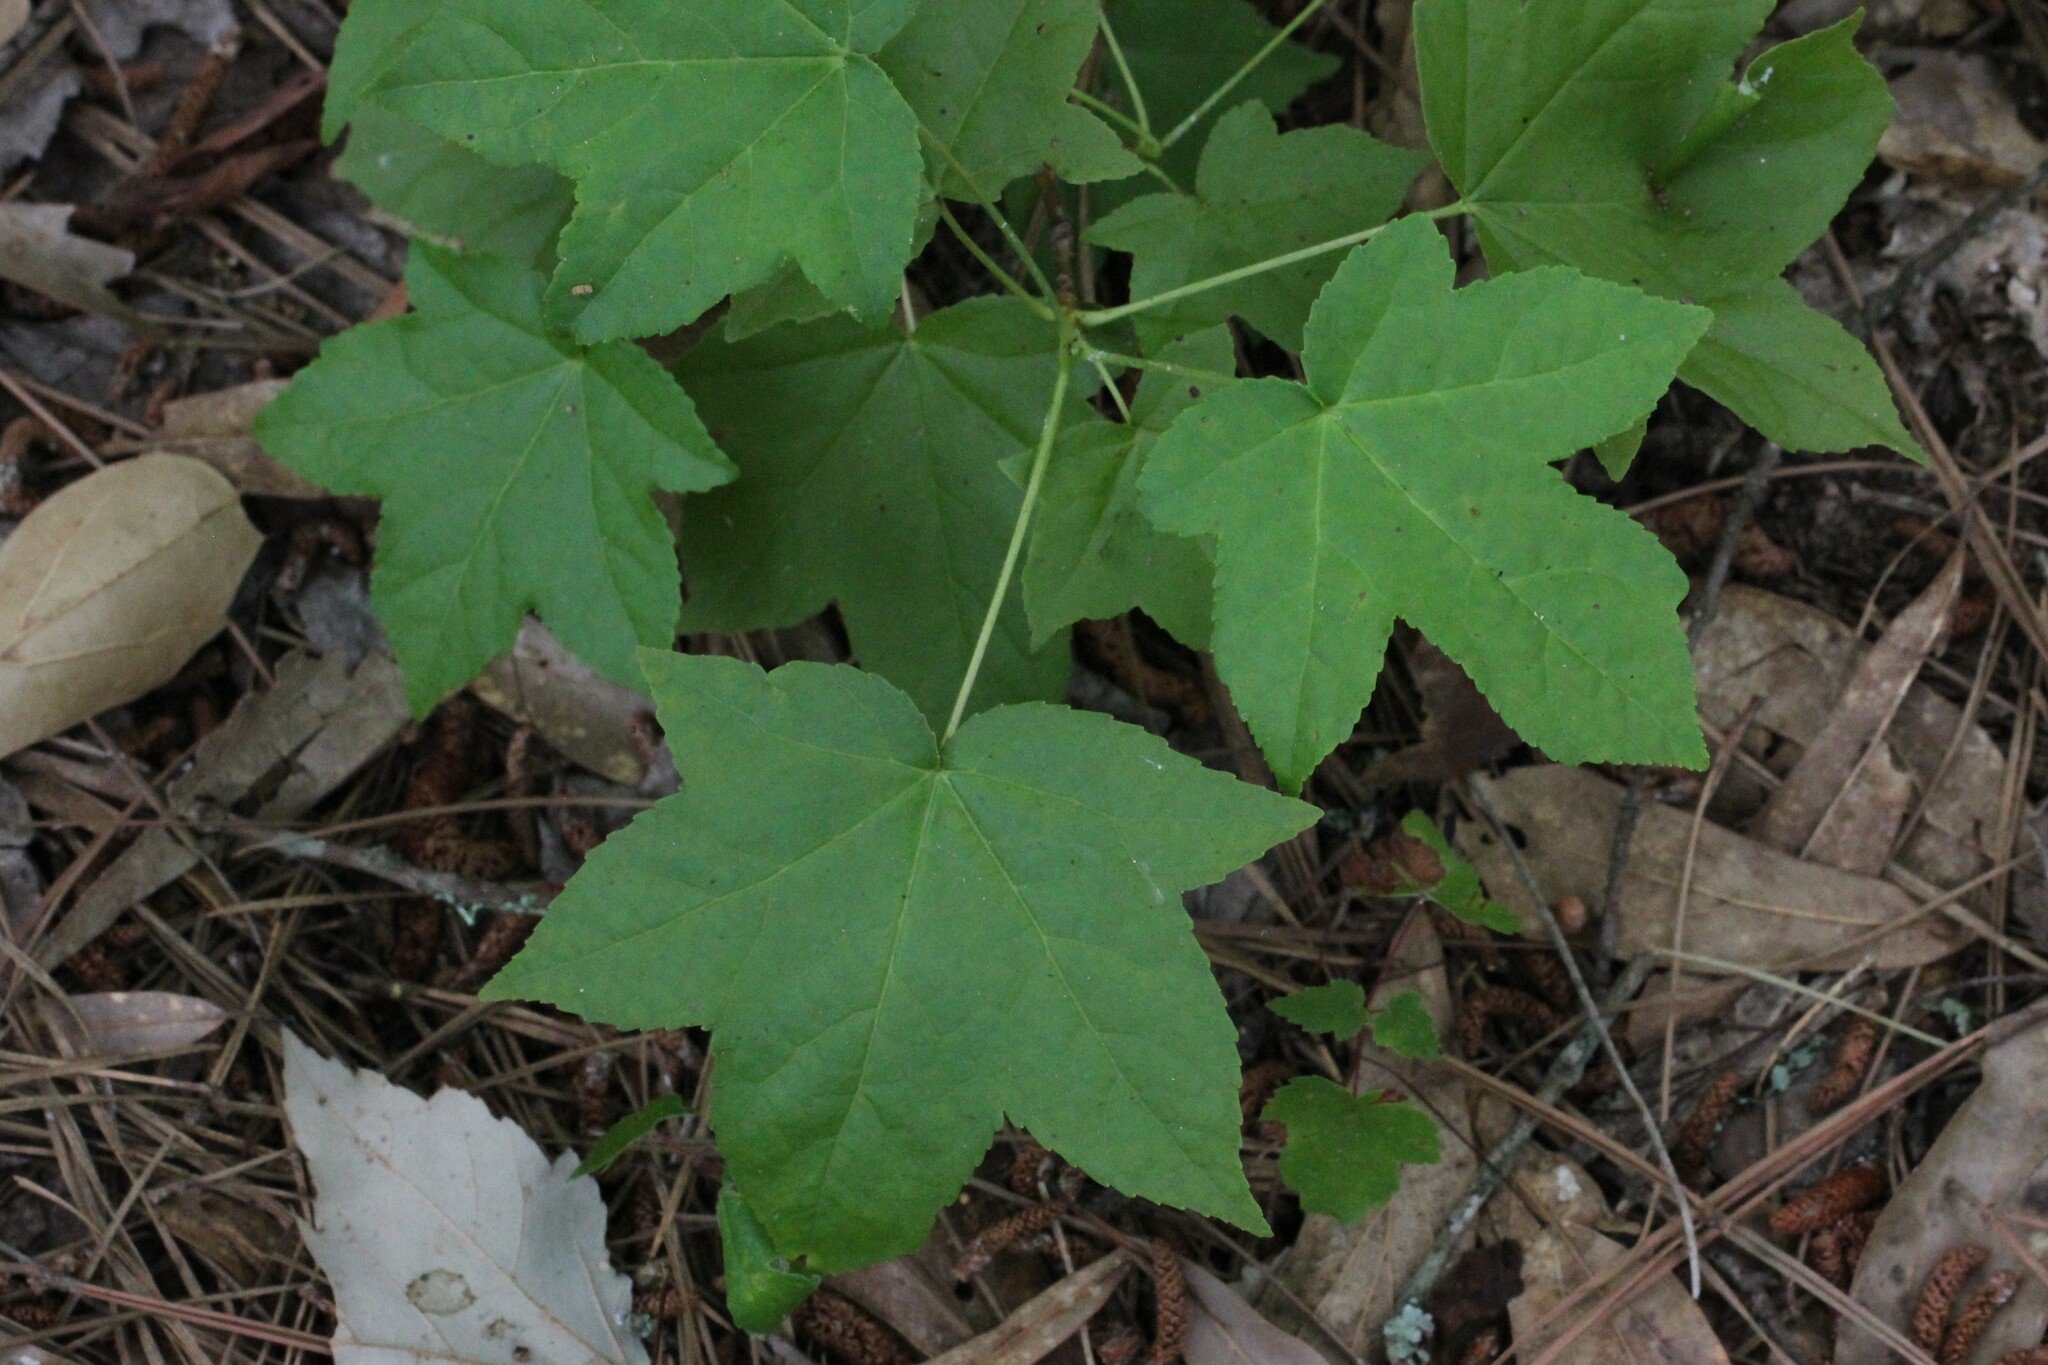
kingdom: Plantae
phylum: Tracheophyta
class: Magnoliopsida
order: Saxifragales
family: Altingiaceae
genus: Liquidambar
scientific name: Liquidambar styraciflua
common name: Sweet gum
